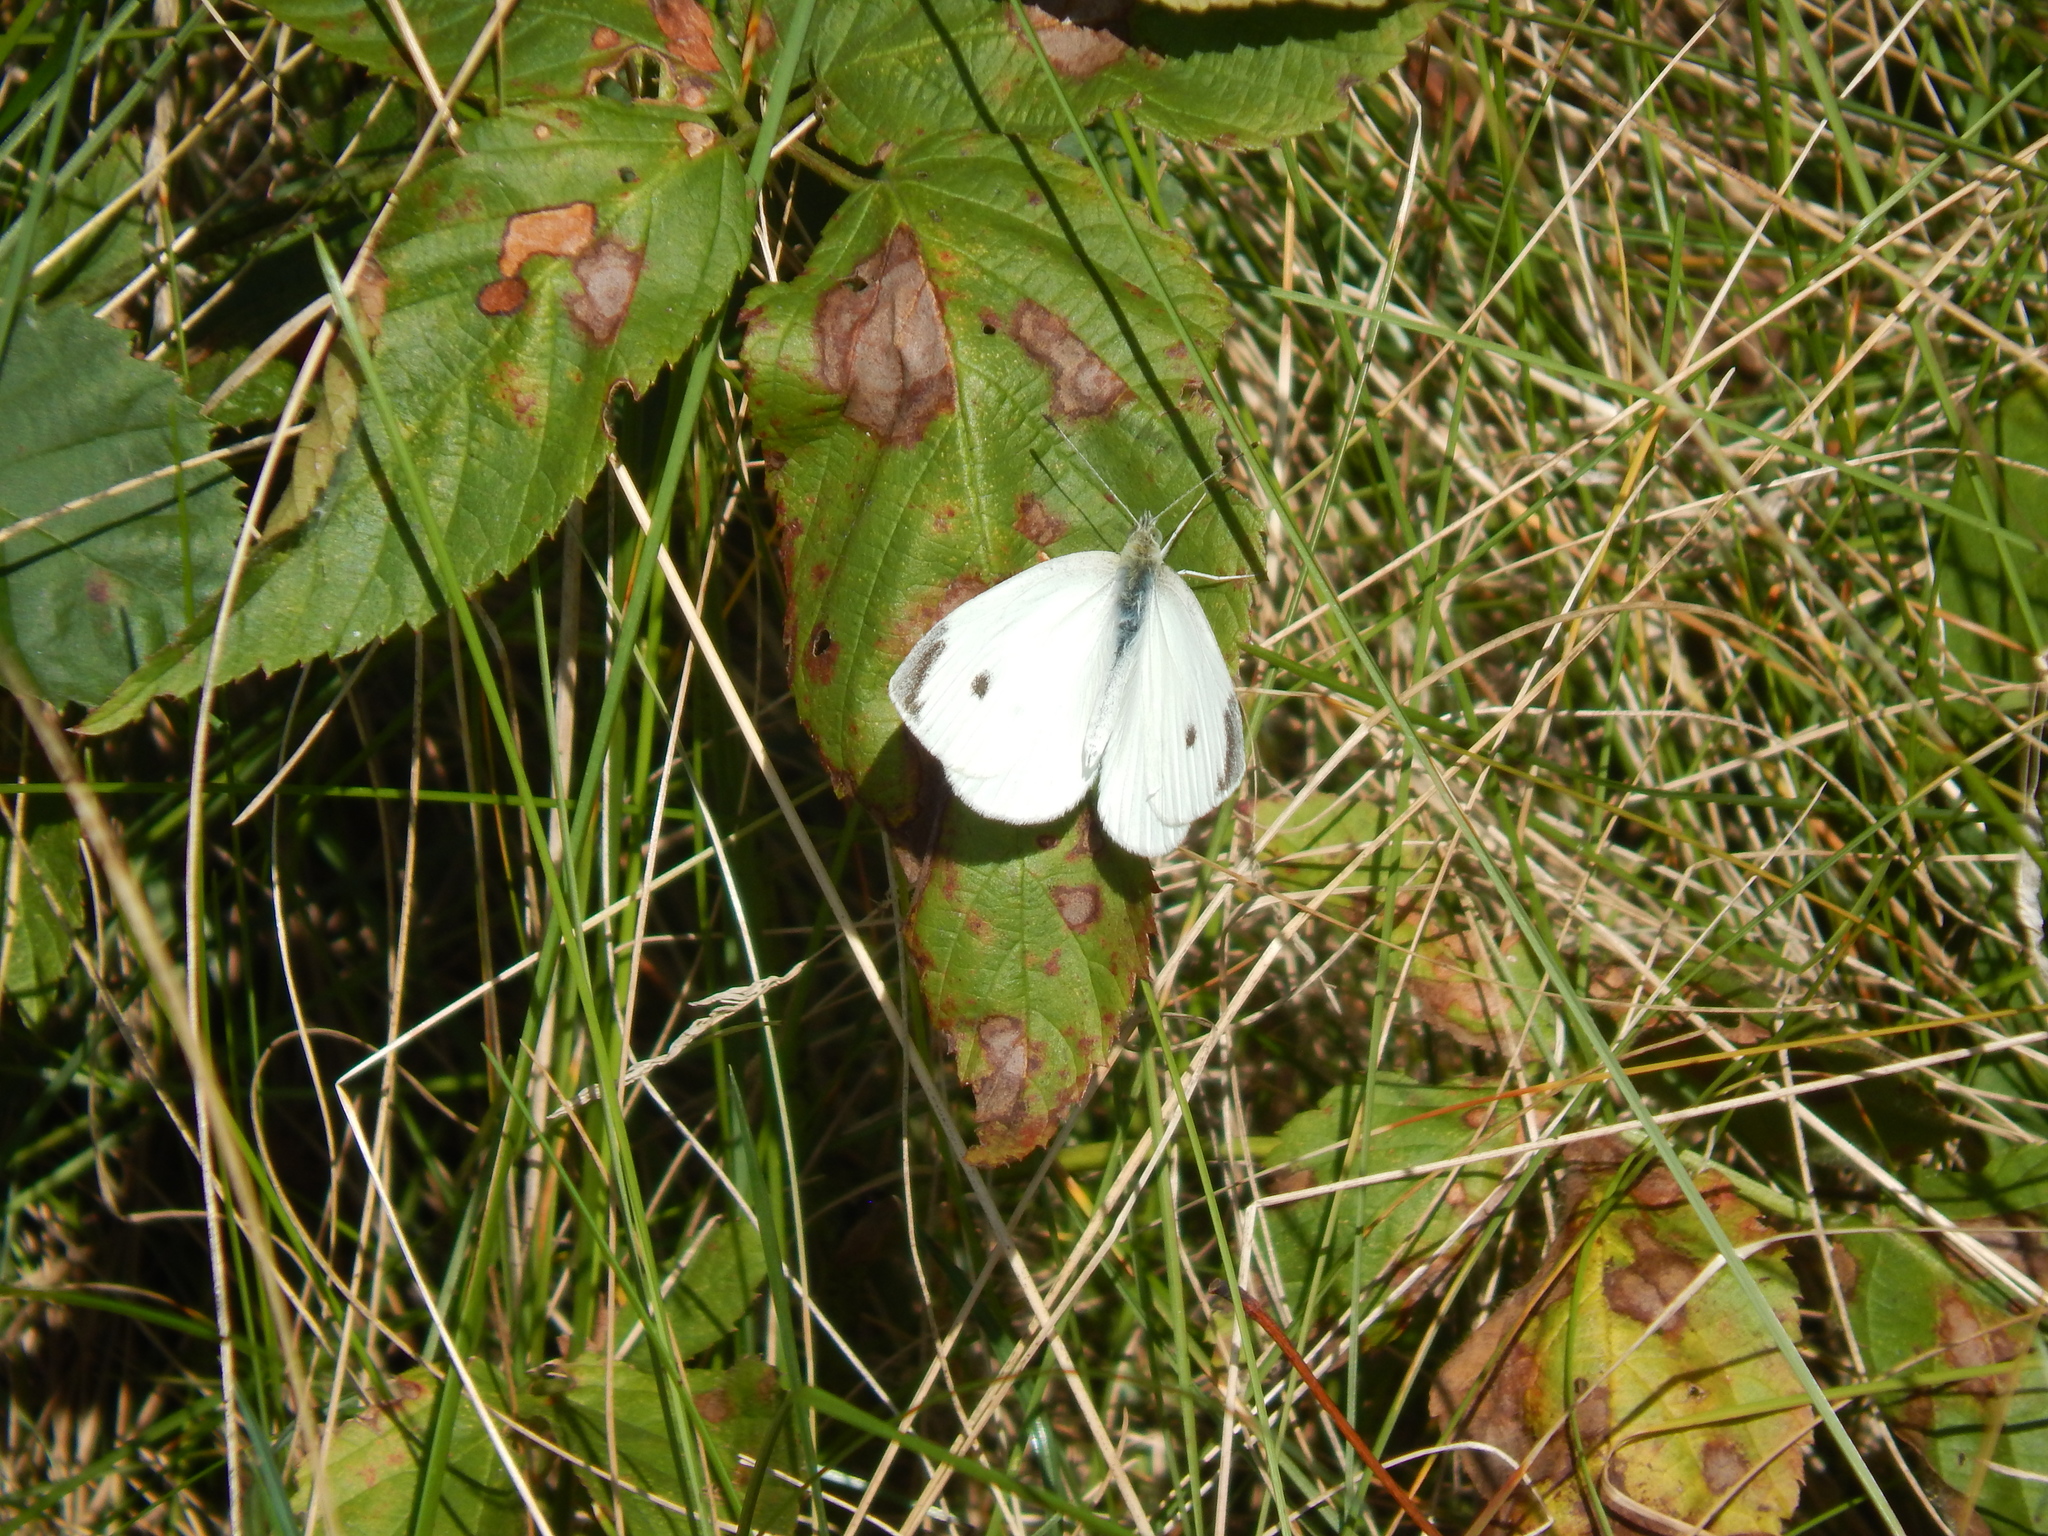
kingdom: Animalia
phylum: Arthropoda
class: Insecta
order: Lepidoptera
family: Pieridae
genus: Pieris
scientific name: Pieris rapae
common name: Small white
